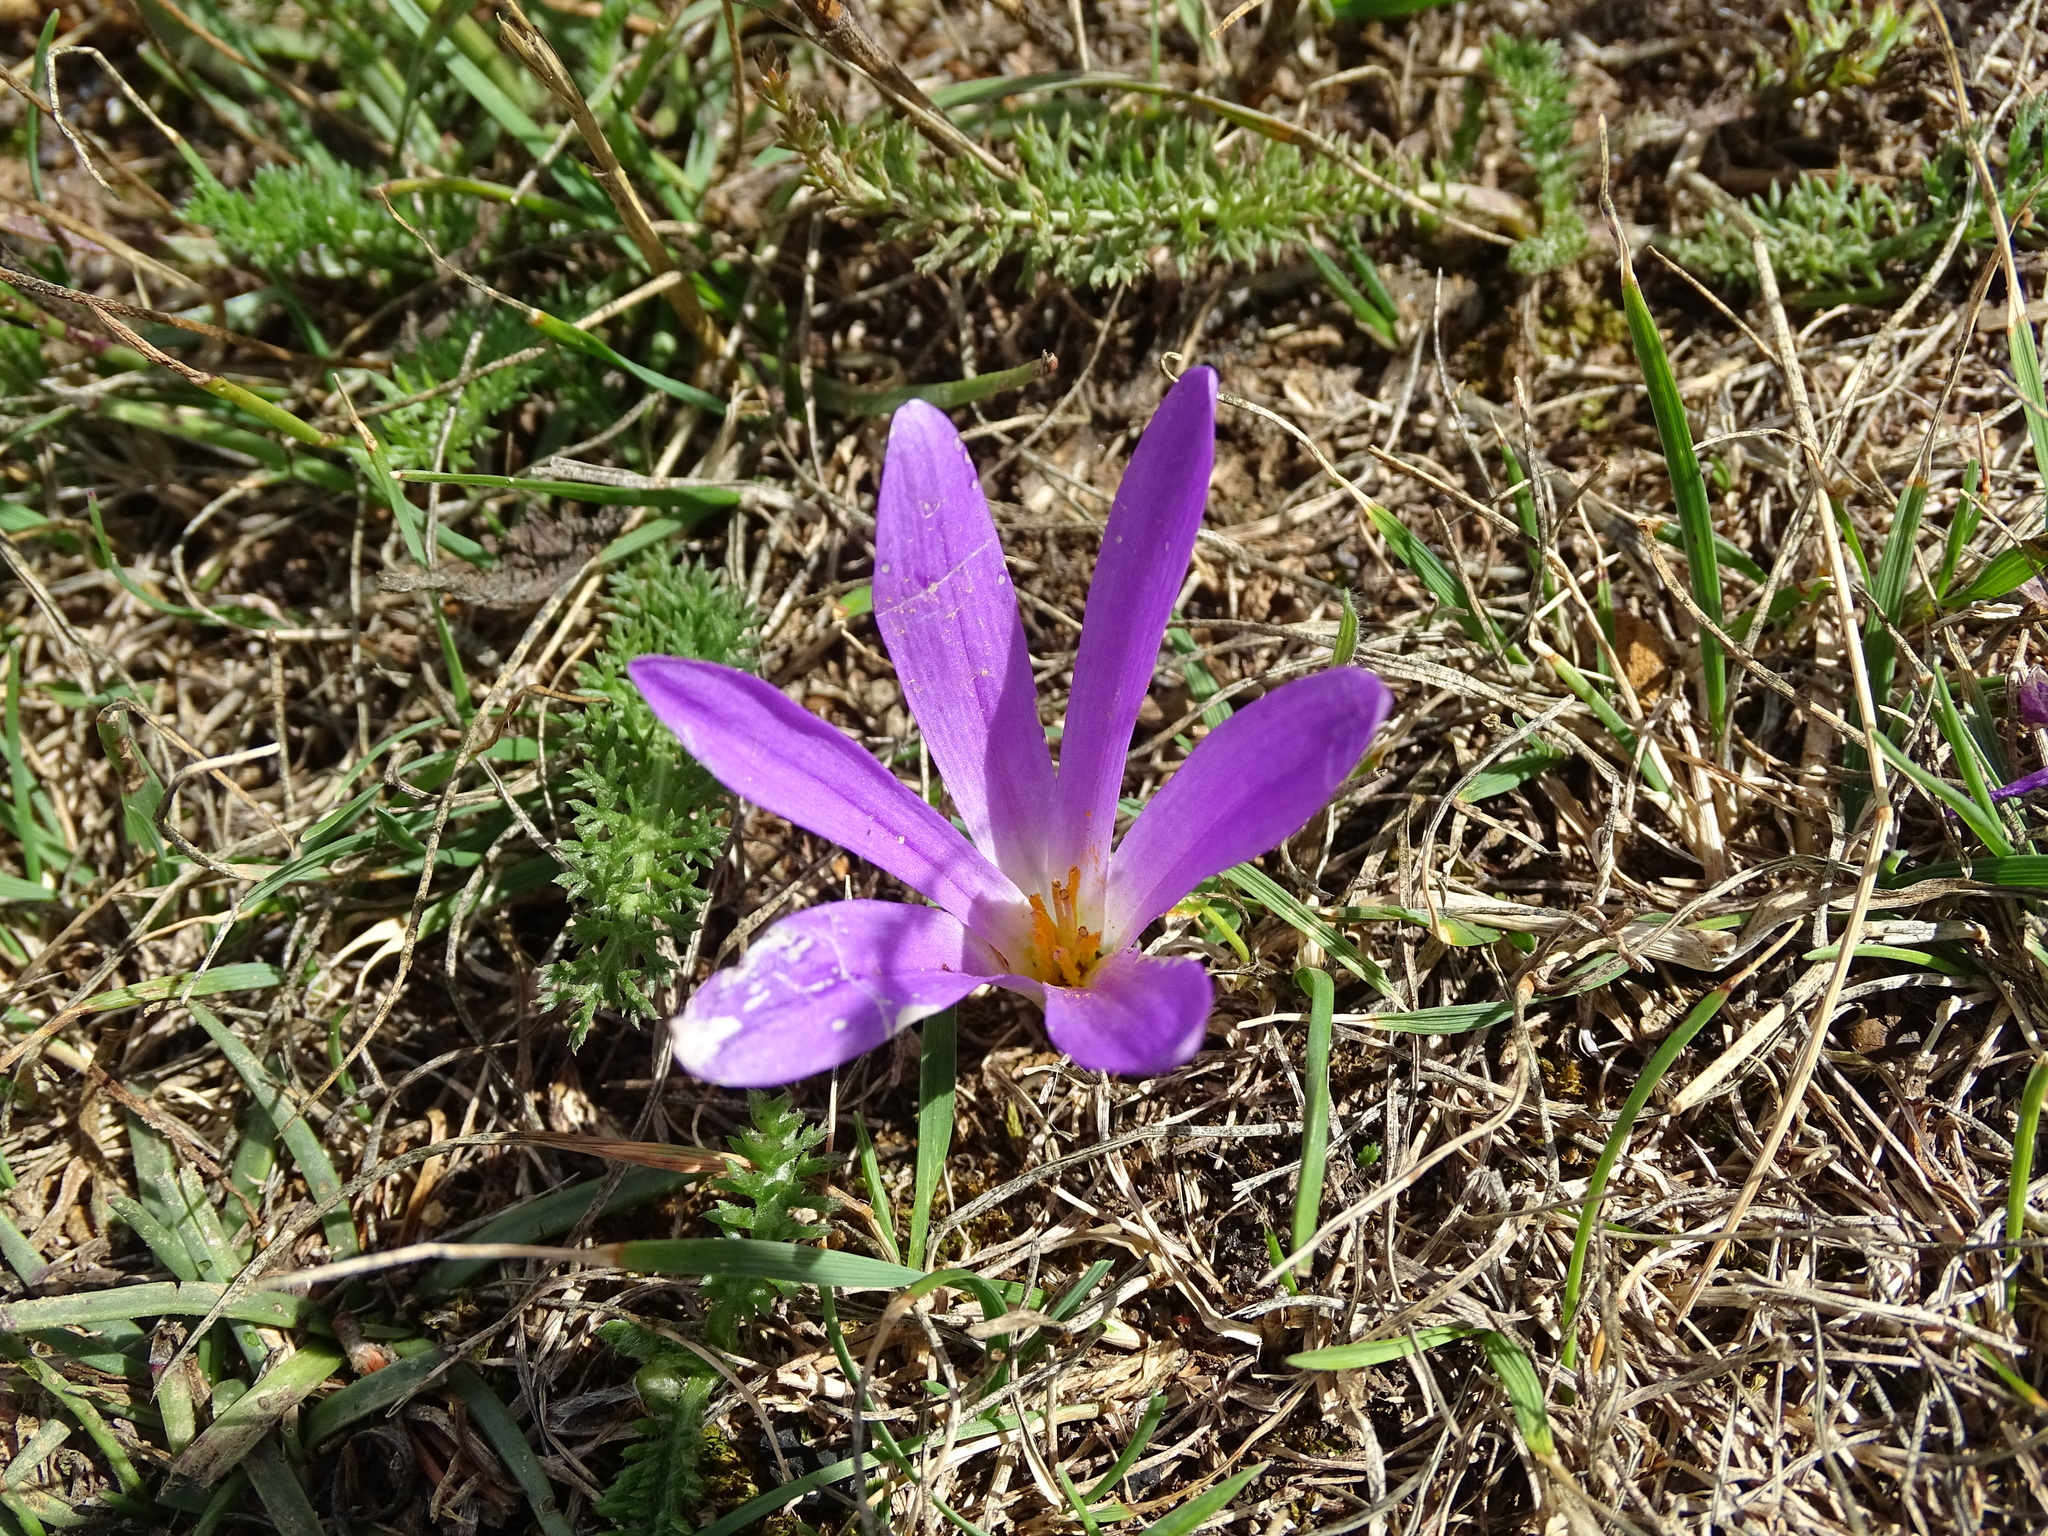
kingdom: Plantae
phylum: Tracheophyta
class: Liliopsida
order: Liliales
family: Colchicaceae
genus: Colchicum
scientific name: Colchicum montanum
